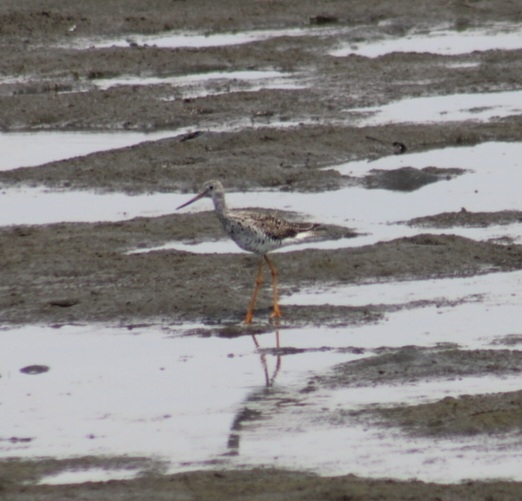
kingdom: Animalia
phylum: Chordata
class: Aves
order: Charadriiformes
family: Scolopacidae
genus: Tringa
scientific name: Tringa melanoleuca
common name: Greater yellowlegs
